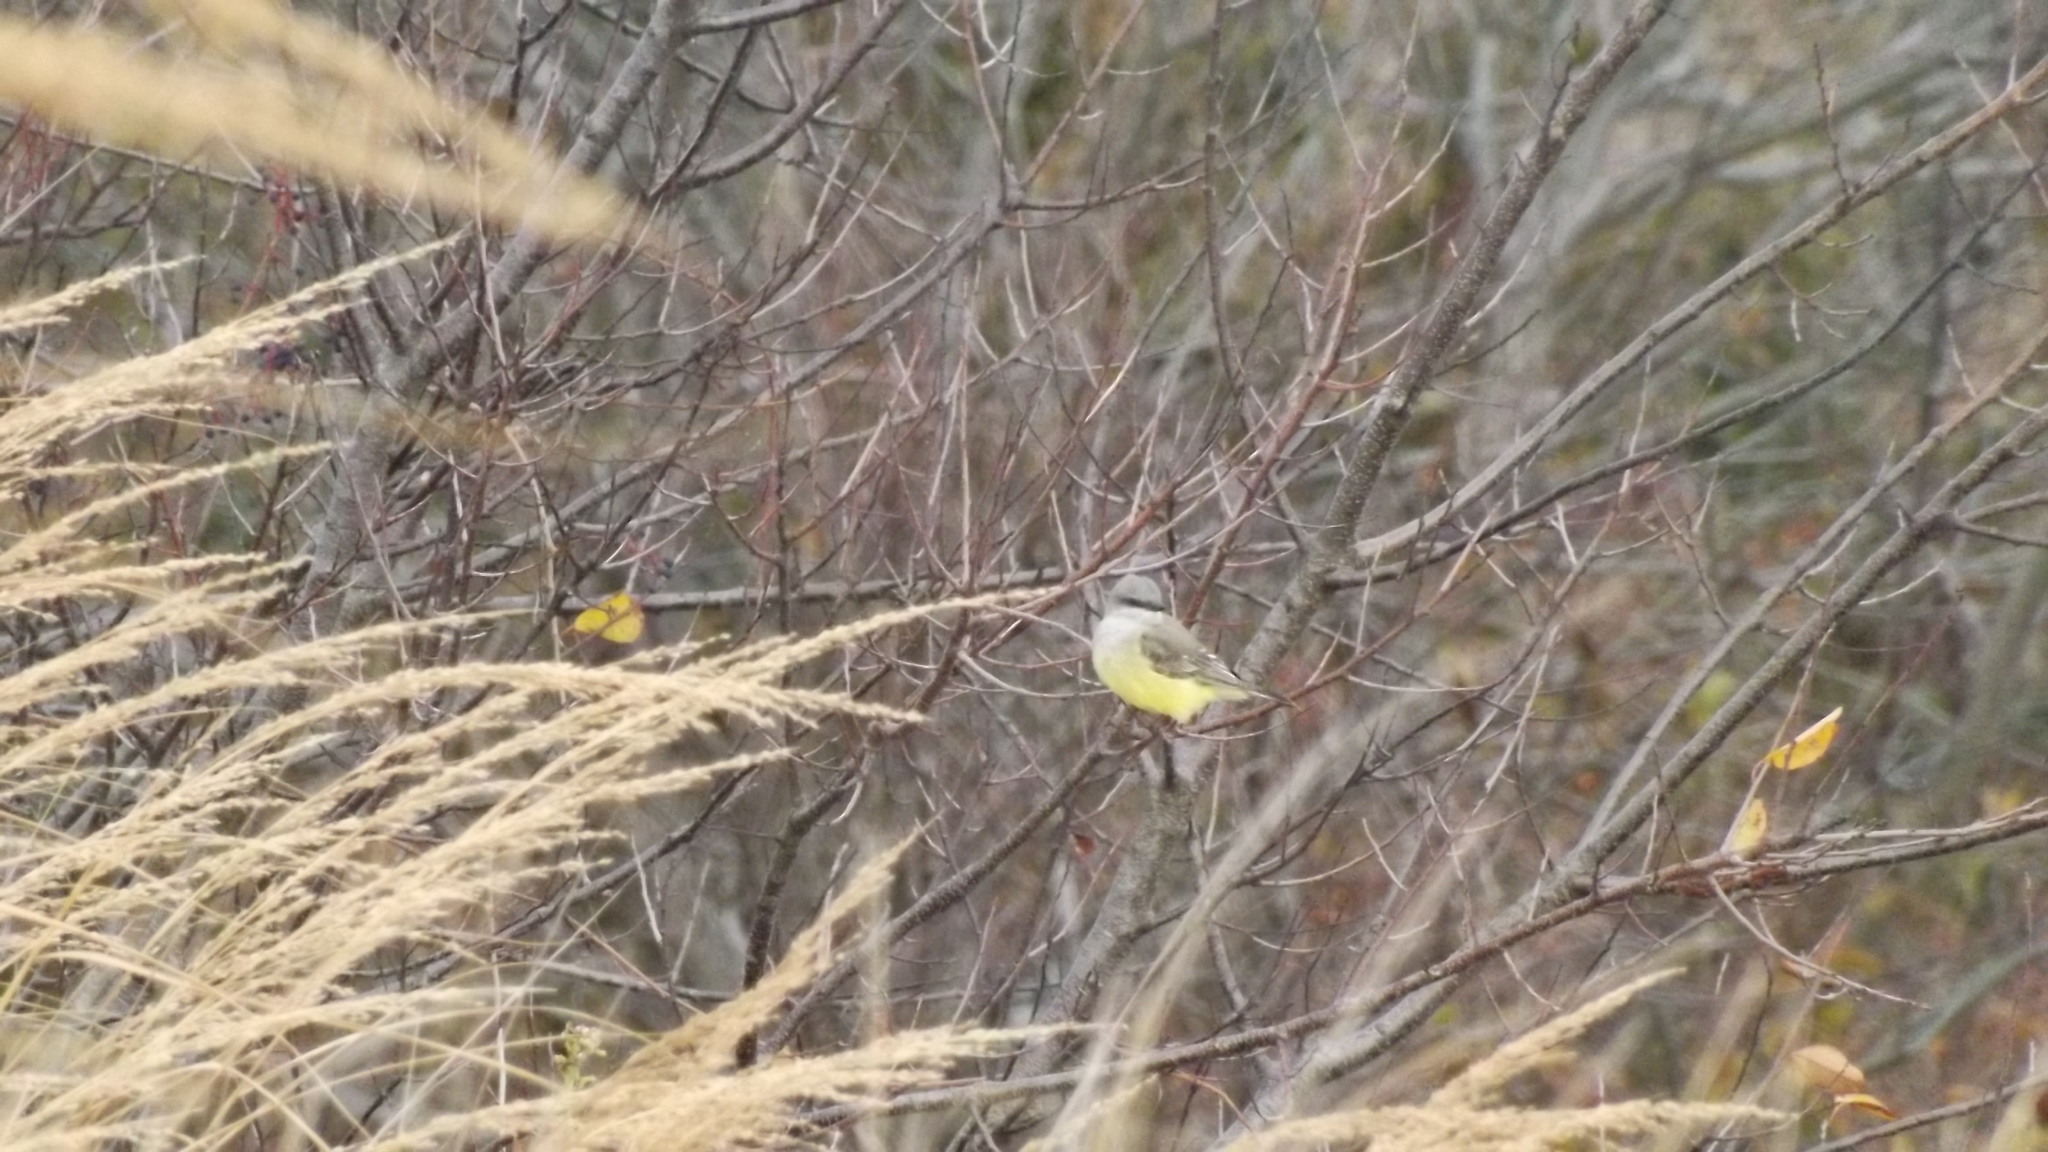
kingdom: Animalia
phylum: Chordata
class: Aves
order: Passeriformes
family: Tyrannidae
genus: Tyrannus
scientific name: Tyrannus verticalis
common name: Western kingbird
